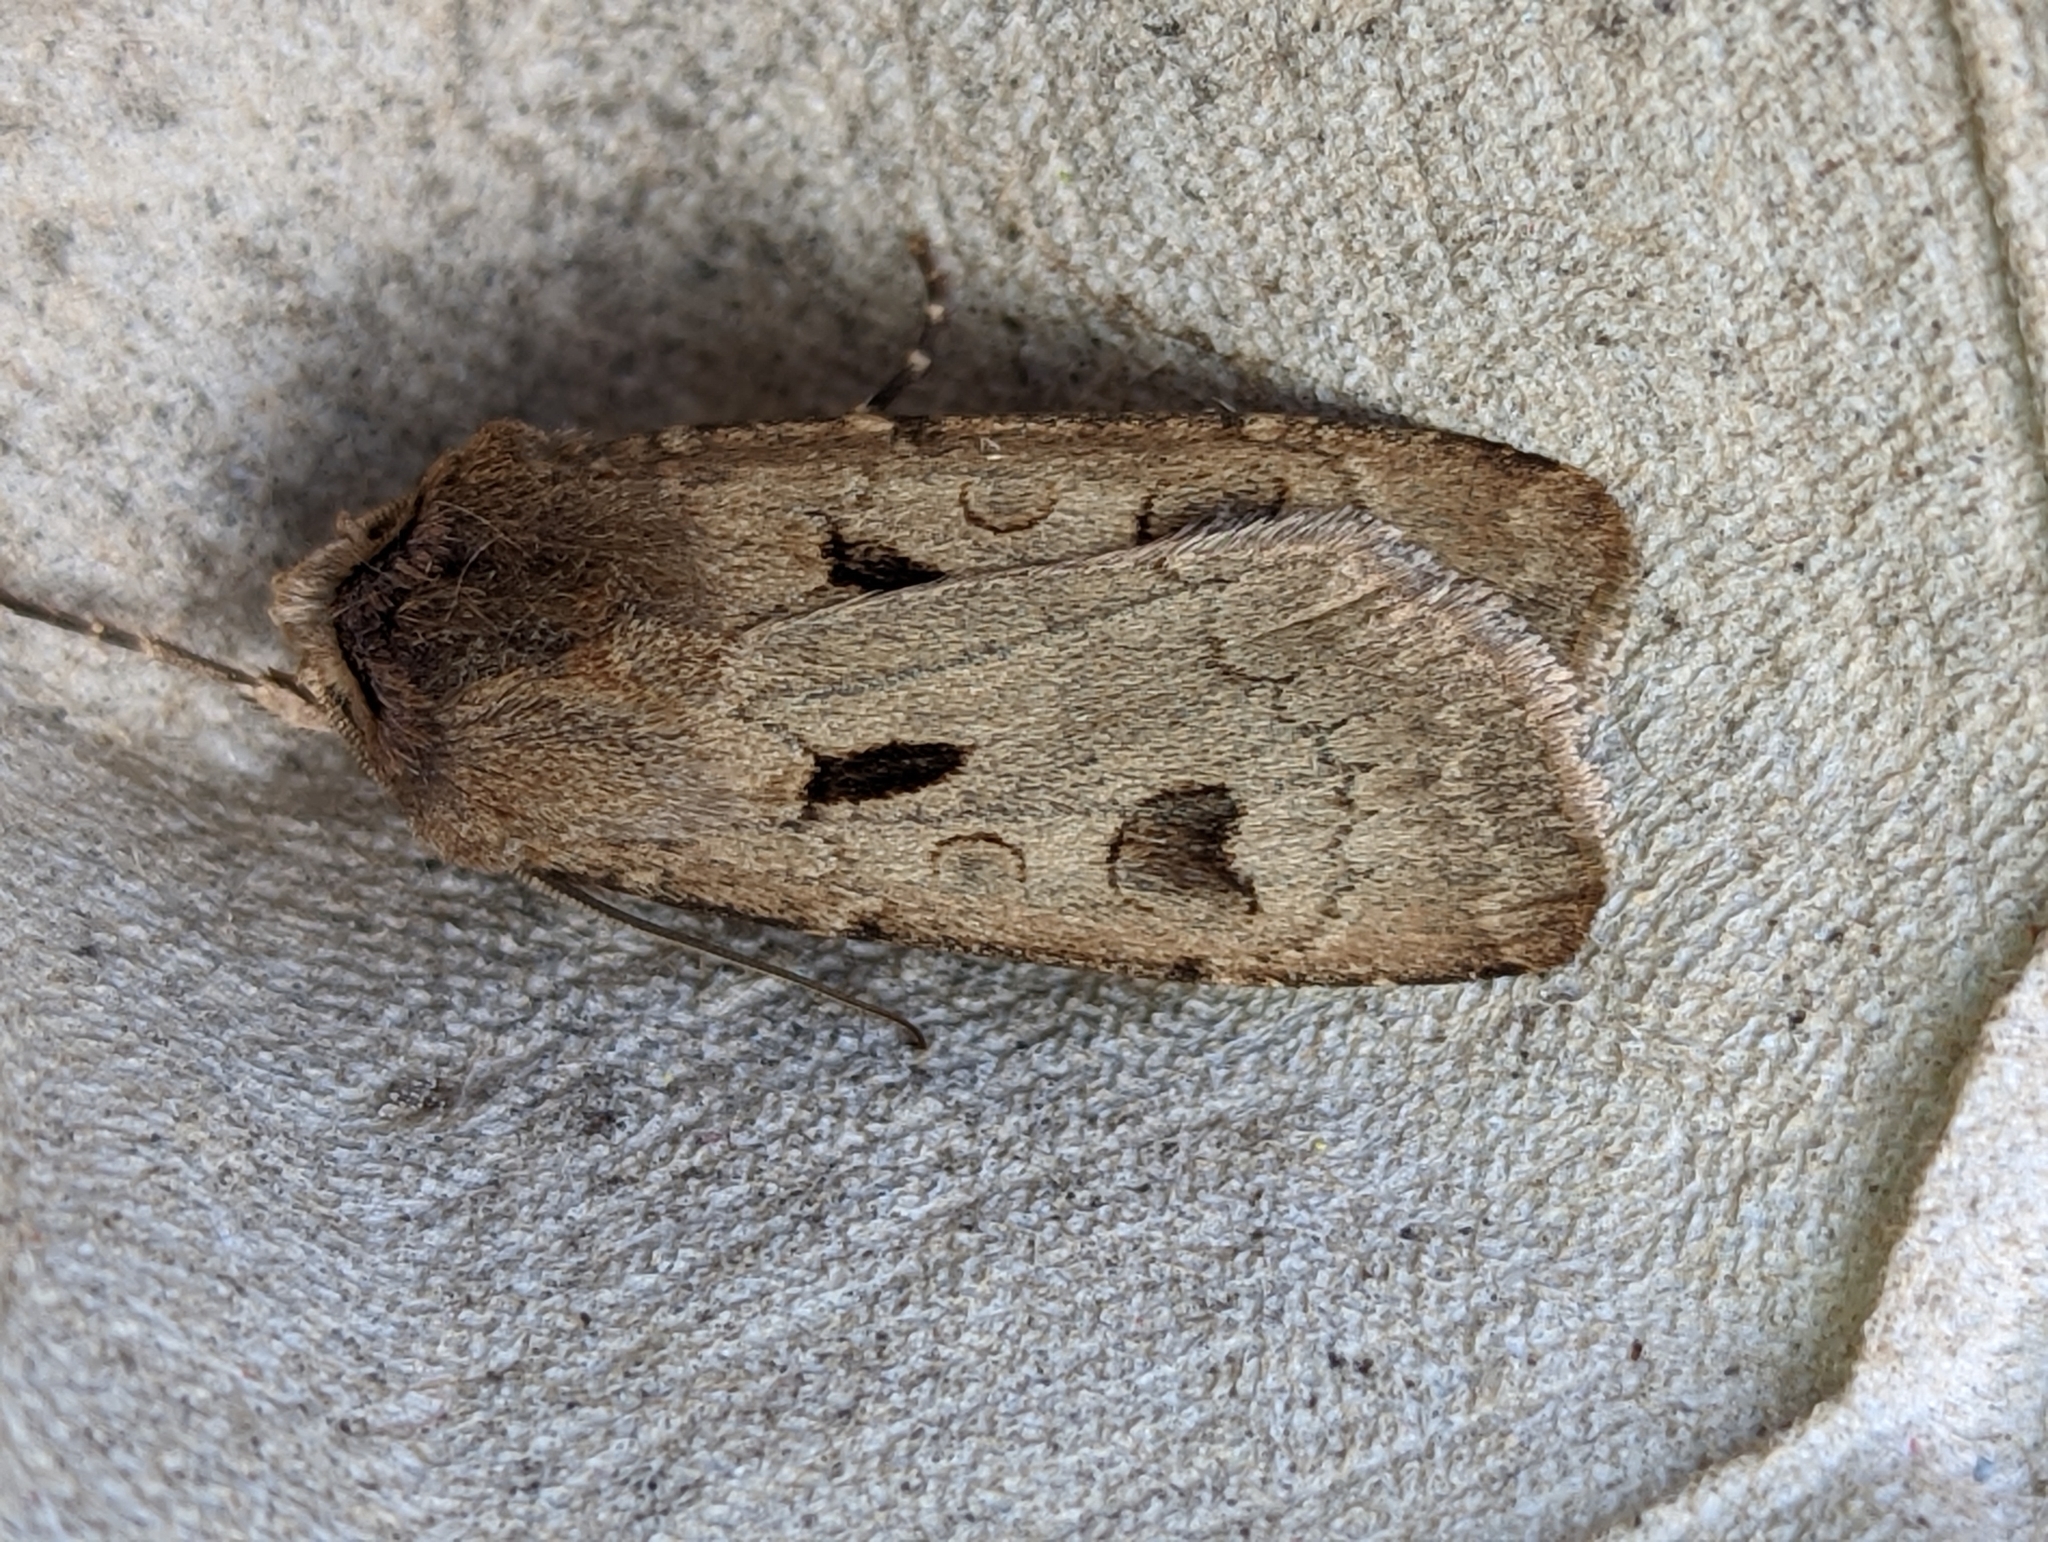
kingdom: Animalia
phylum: Arthropoda
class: Insecta
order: Lepidoptera
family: Noctuidae
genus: Agrotis
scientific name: Agrotis exclamationis
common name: Heart and dart
